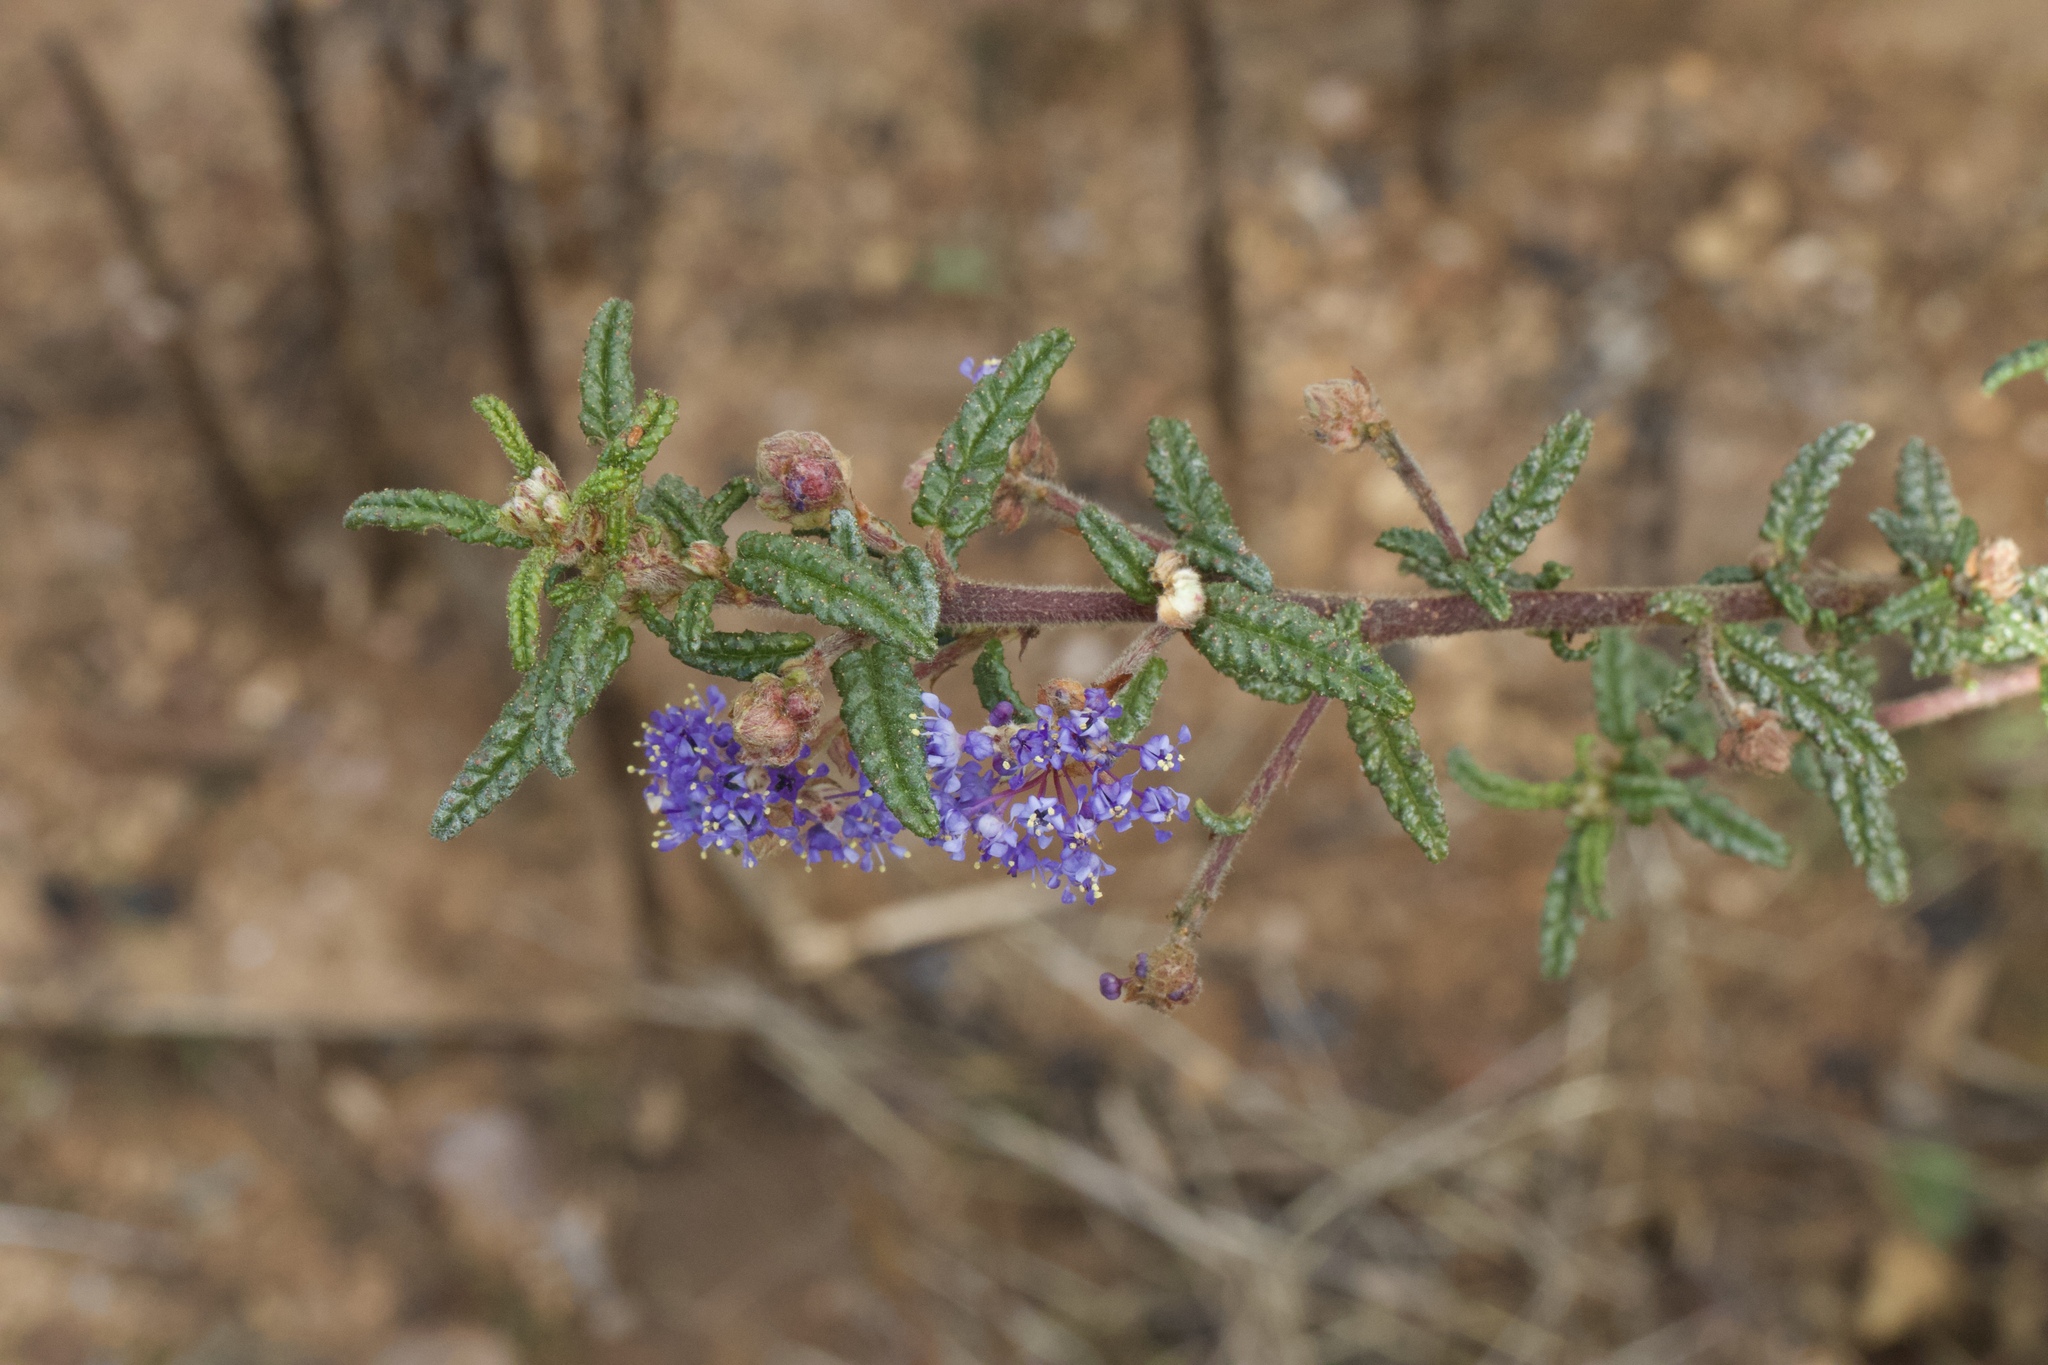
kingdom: Plantae
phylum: Tracheophyta
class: Magnoliopsida
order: Rosales
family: Rhamnaceae
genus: Ceanothus
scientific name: Ceanothus papillosus
